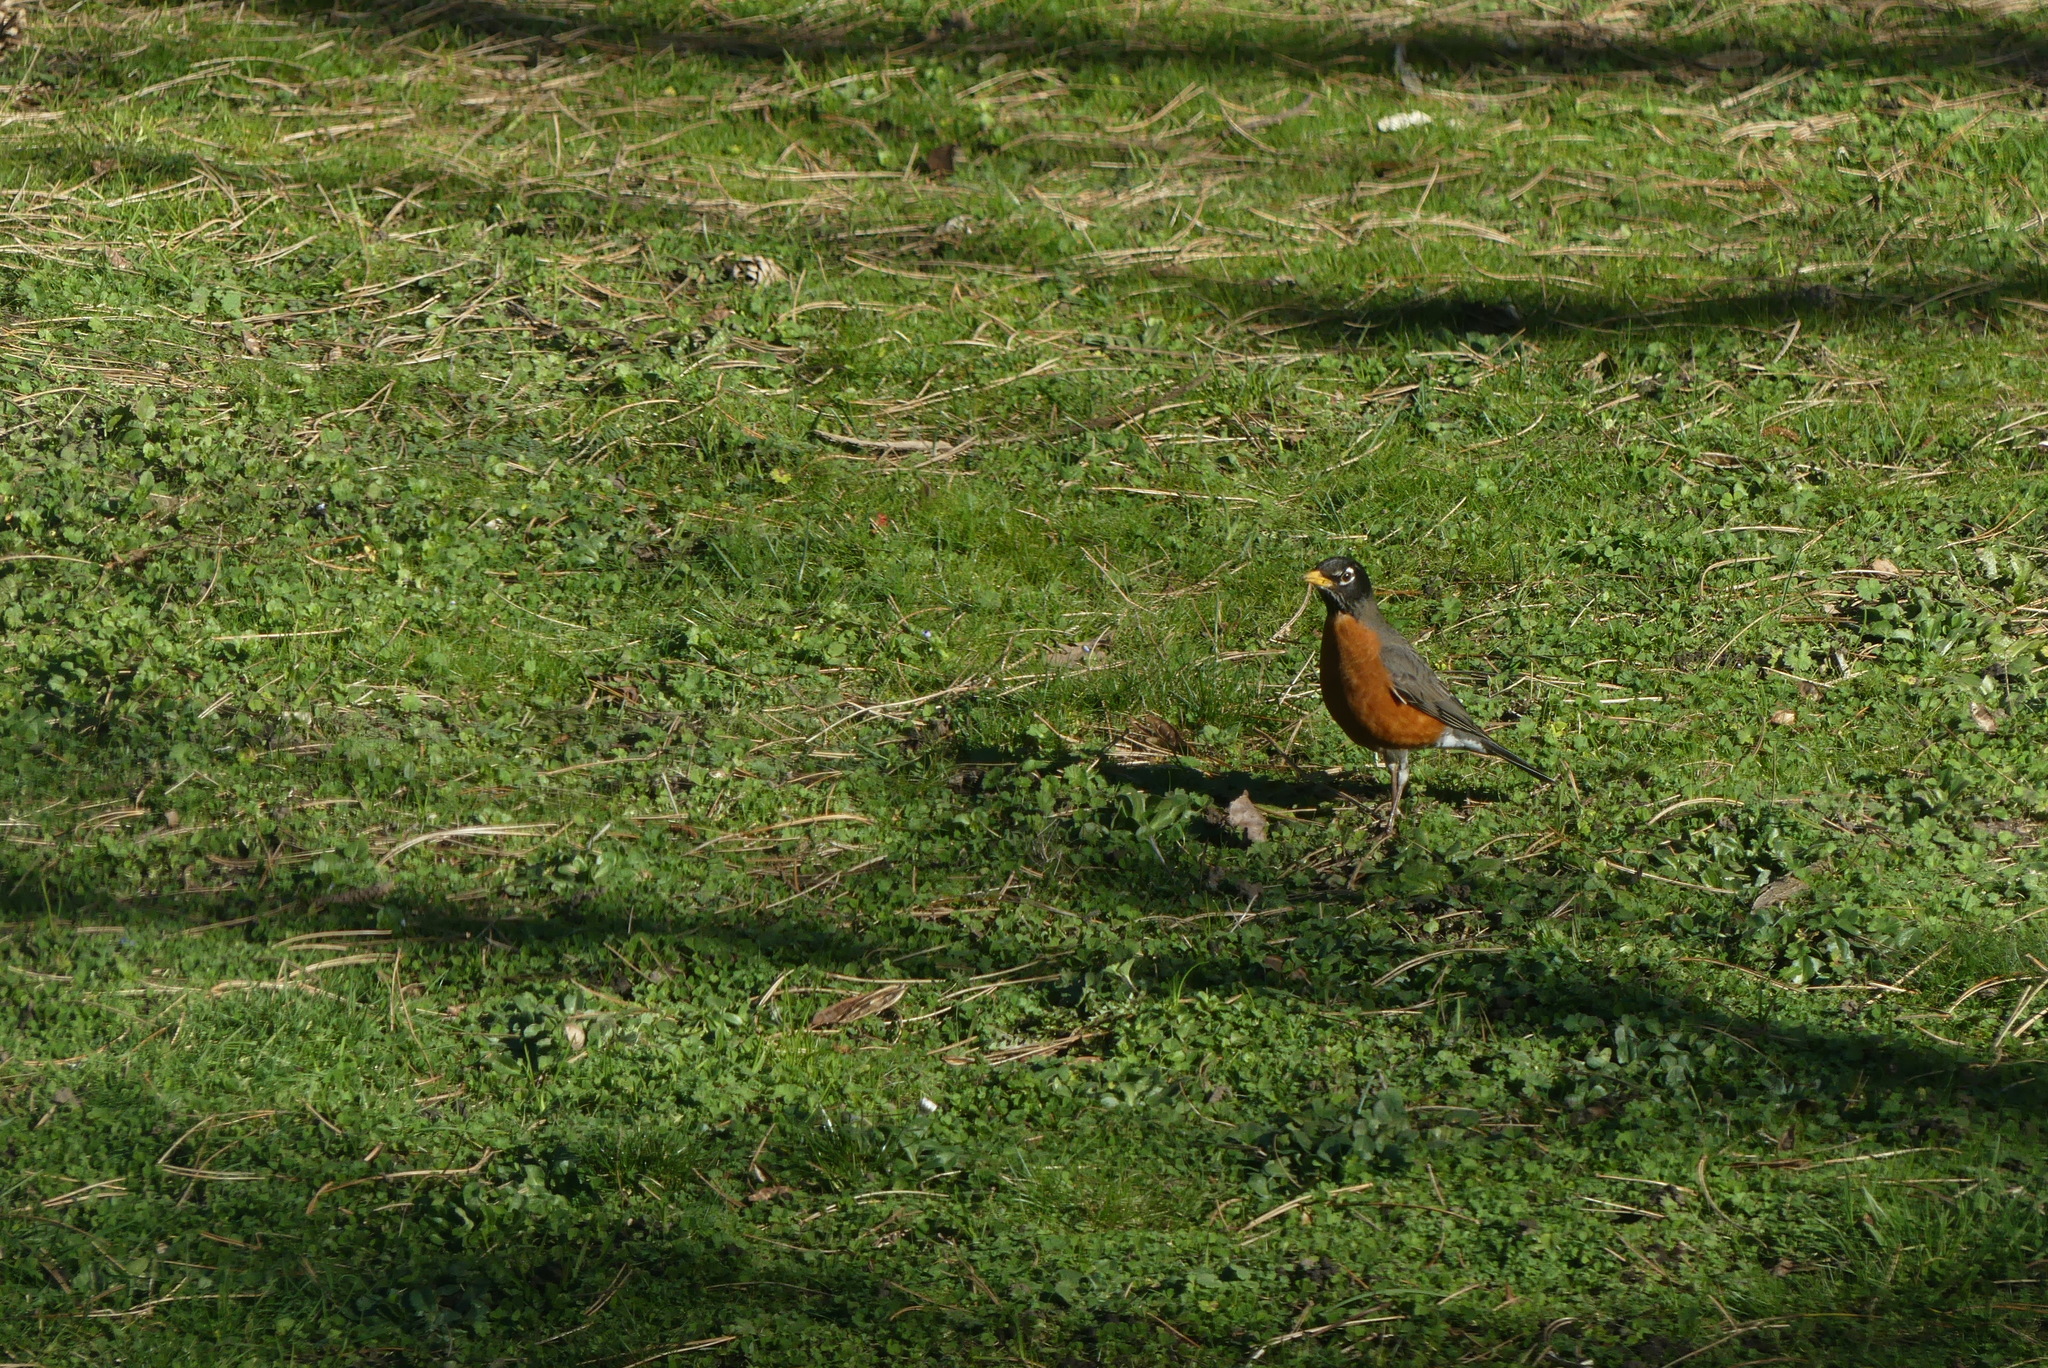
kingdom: Animalia
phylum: Chordata
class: Aves
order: Passeriformes
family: Turdidae
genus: Turdus
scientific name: Turdus migratorius
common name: American robin
